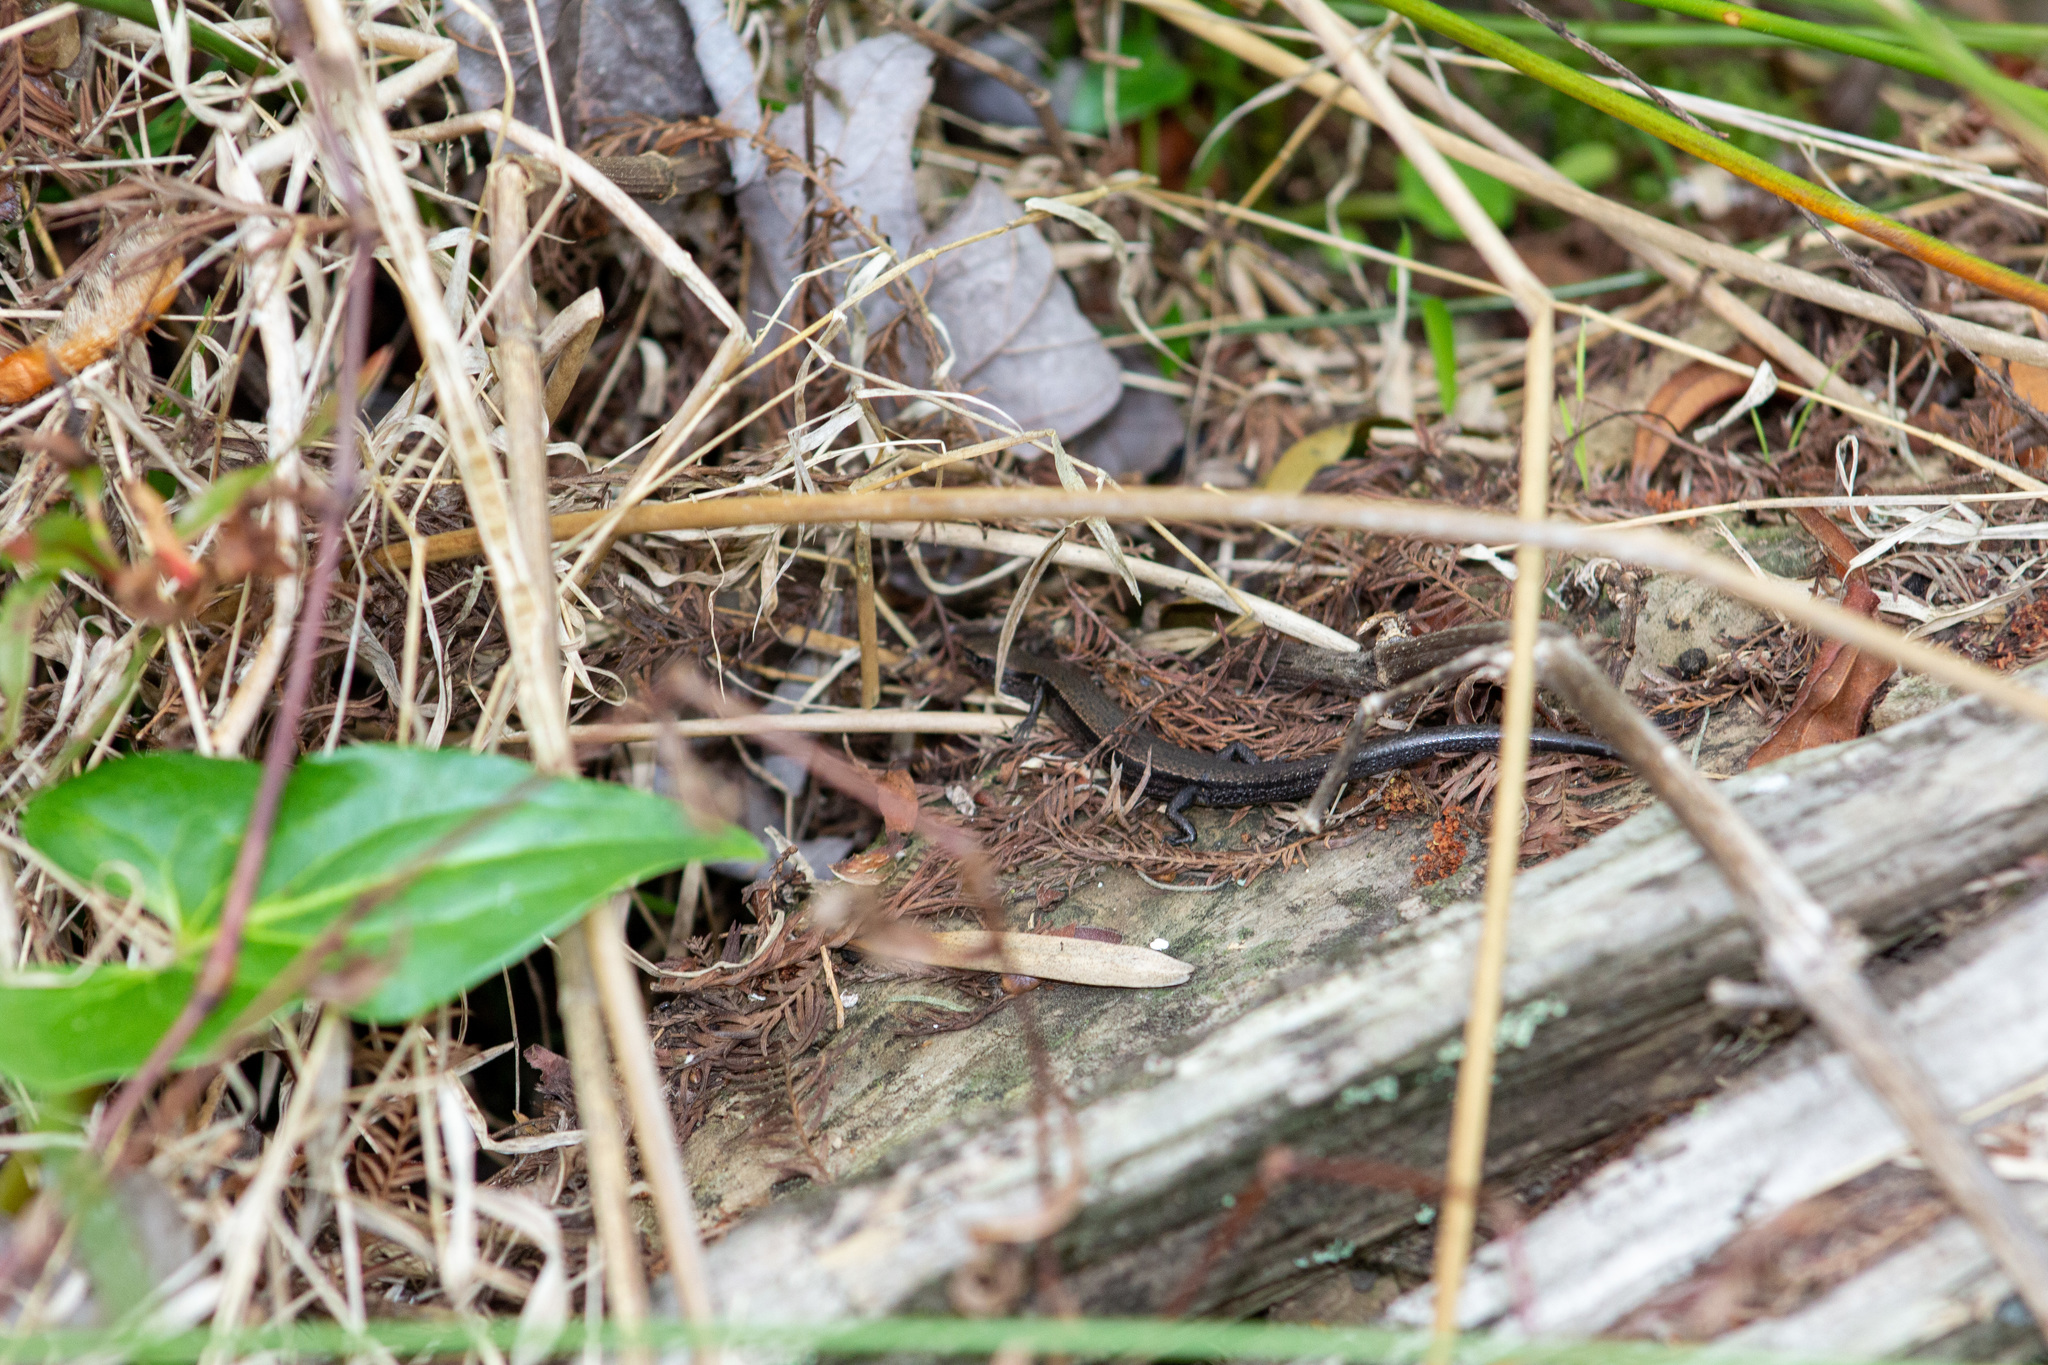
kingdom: Animalia
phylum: Chordata
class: Squamata
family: Scincidae
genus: Scincella
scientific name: Scincella lateralis
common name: Ground skink
